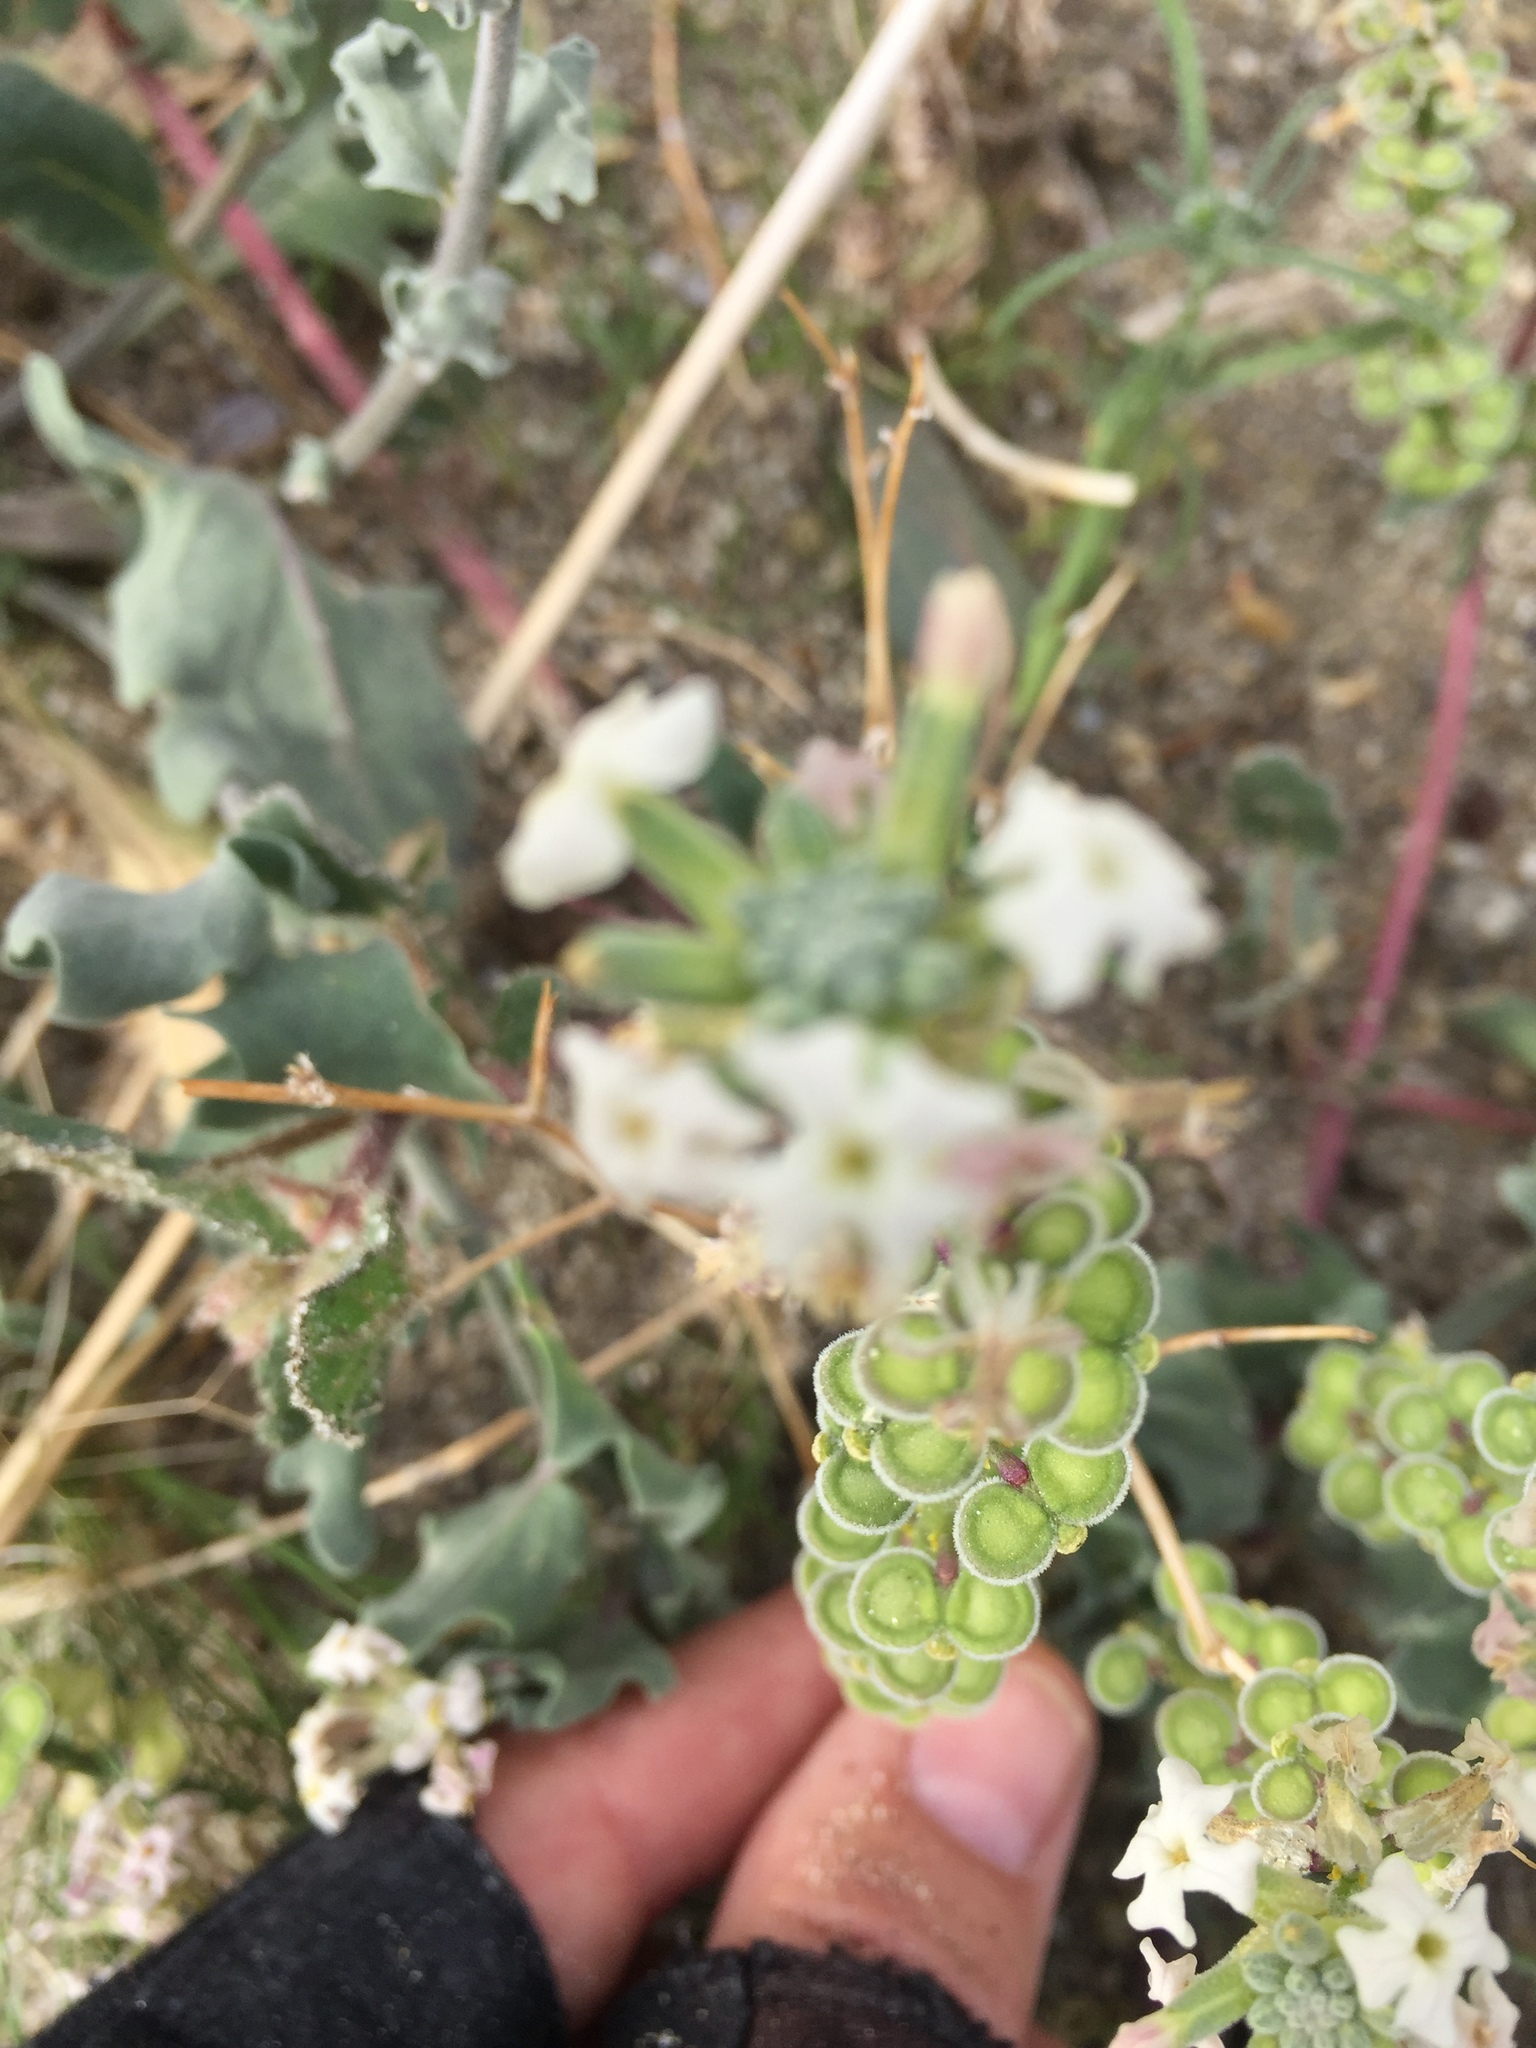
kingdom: Plantae
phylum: Tracheophyta
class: Magnoliopsida
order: Brassicales
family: Brassicaceae
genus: Dithyrea
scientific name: Dithyrea californica
